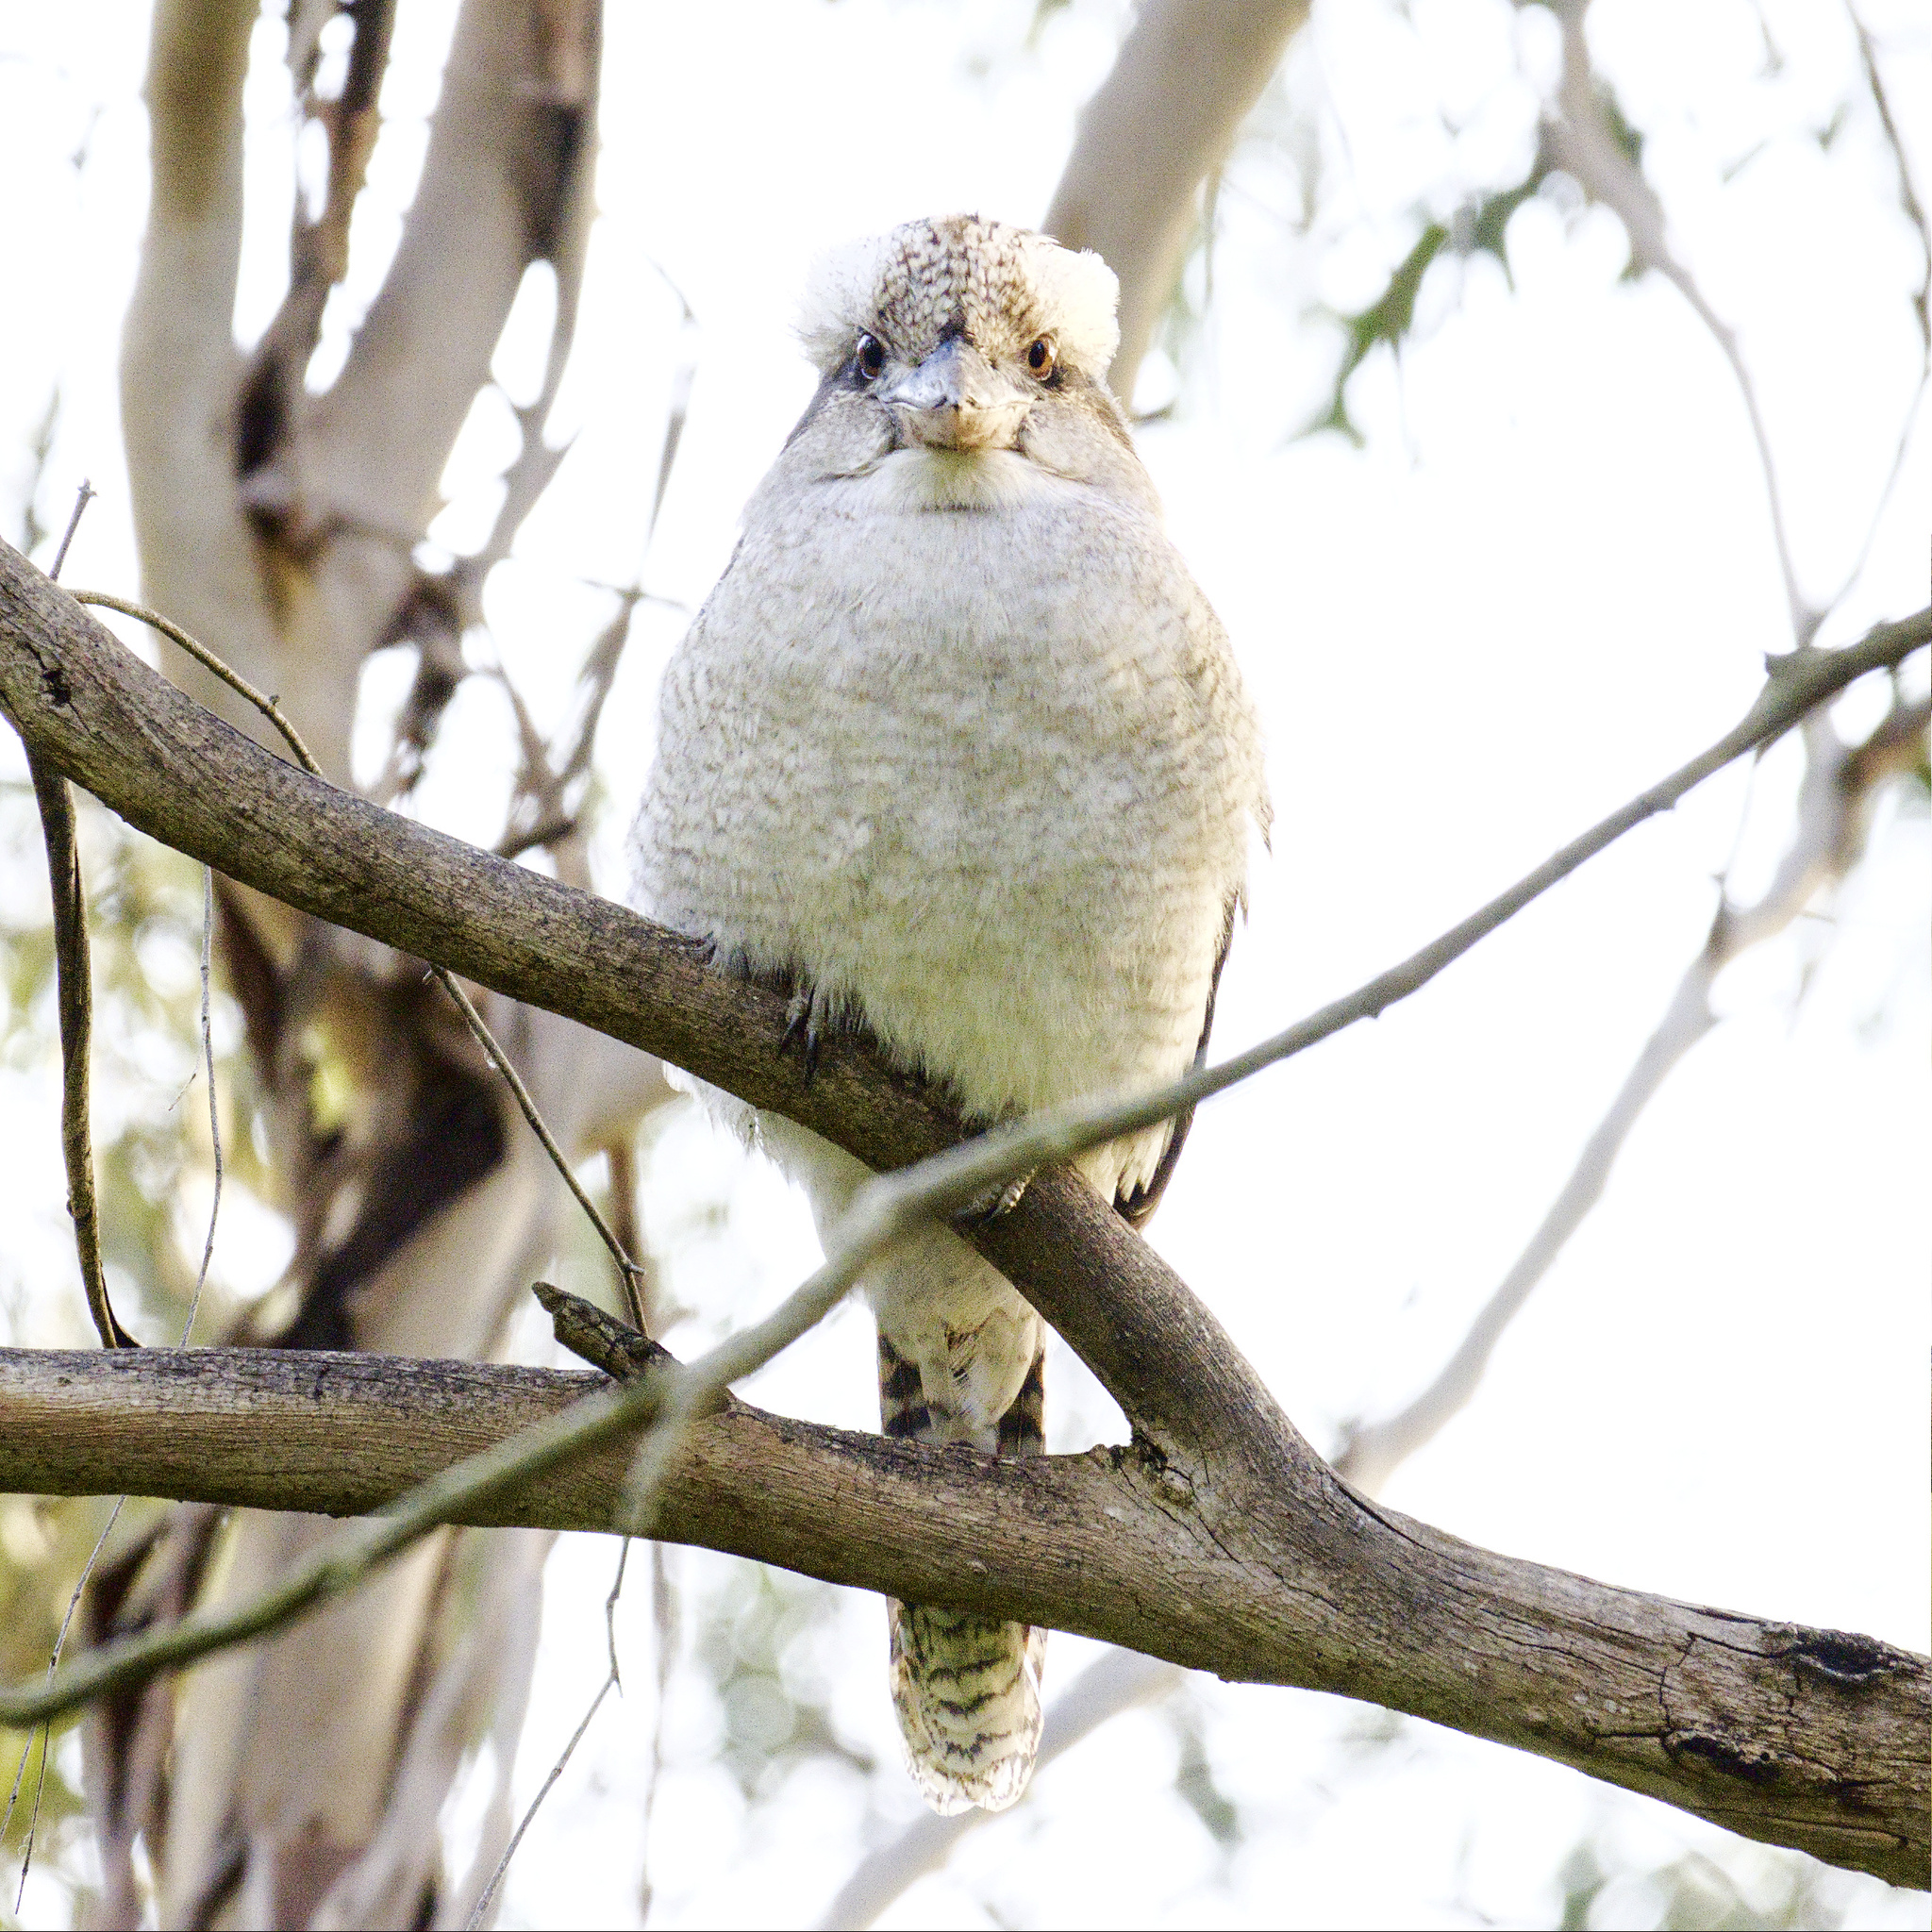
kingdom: Animalia
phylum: Chordata
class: Aves
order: Coraciiformes
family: Alcedinidae
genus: Dacelo
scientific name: Dacelo novaeguineae
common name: Laughing kookaburra
